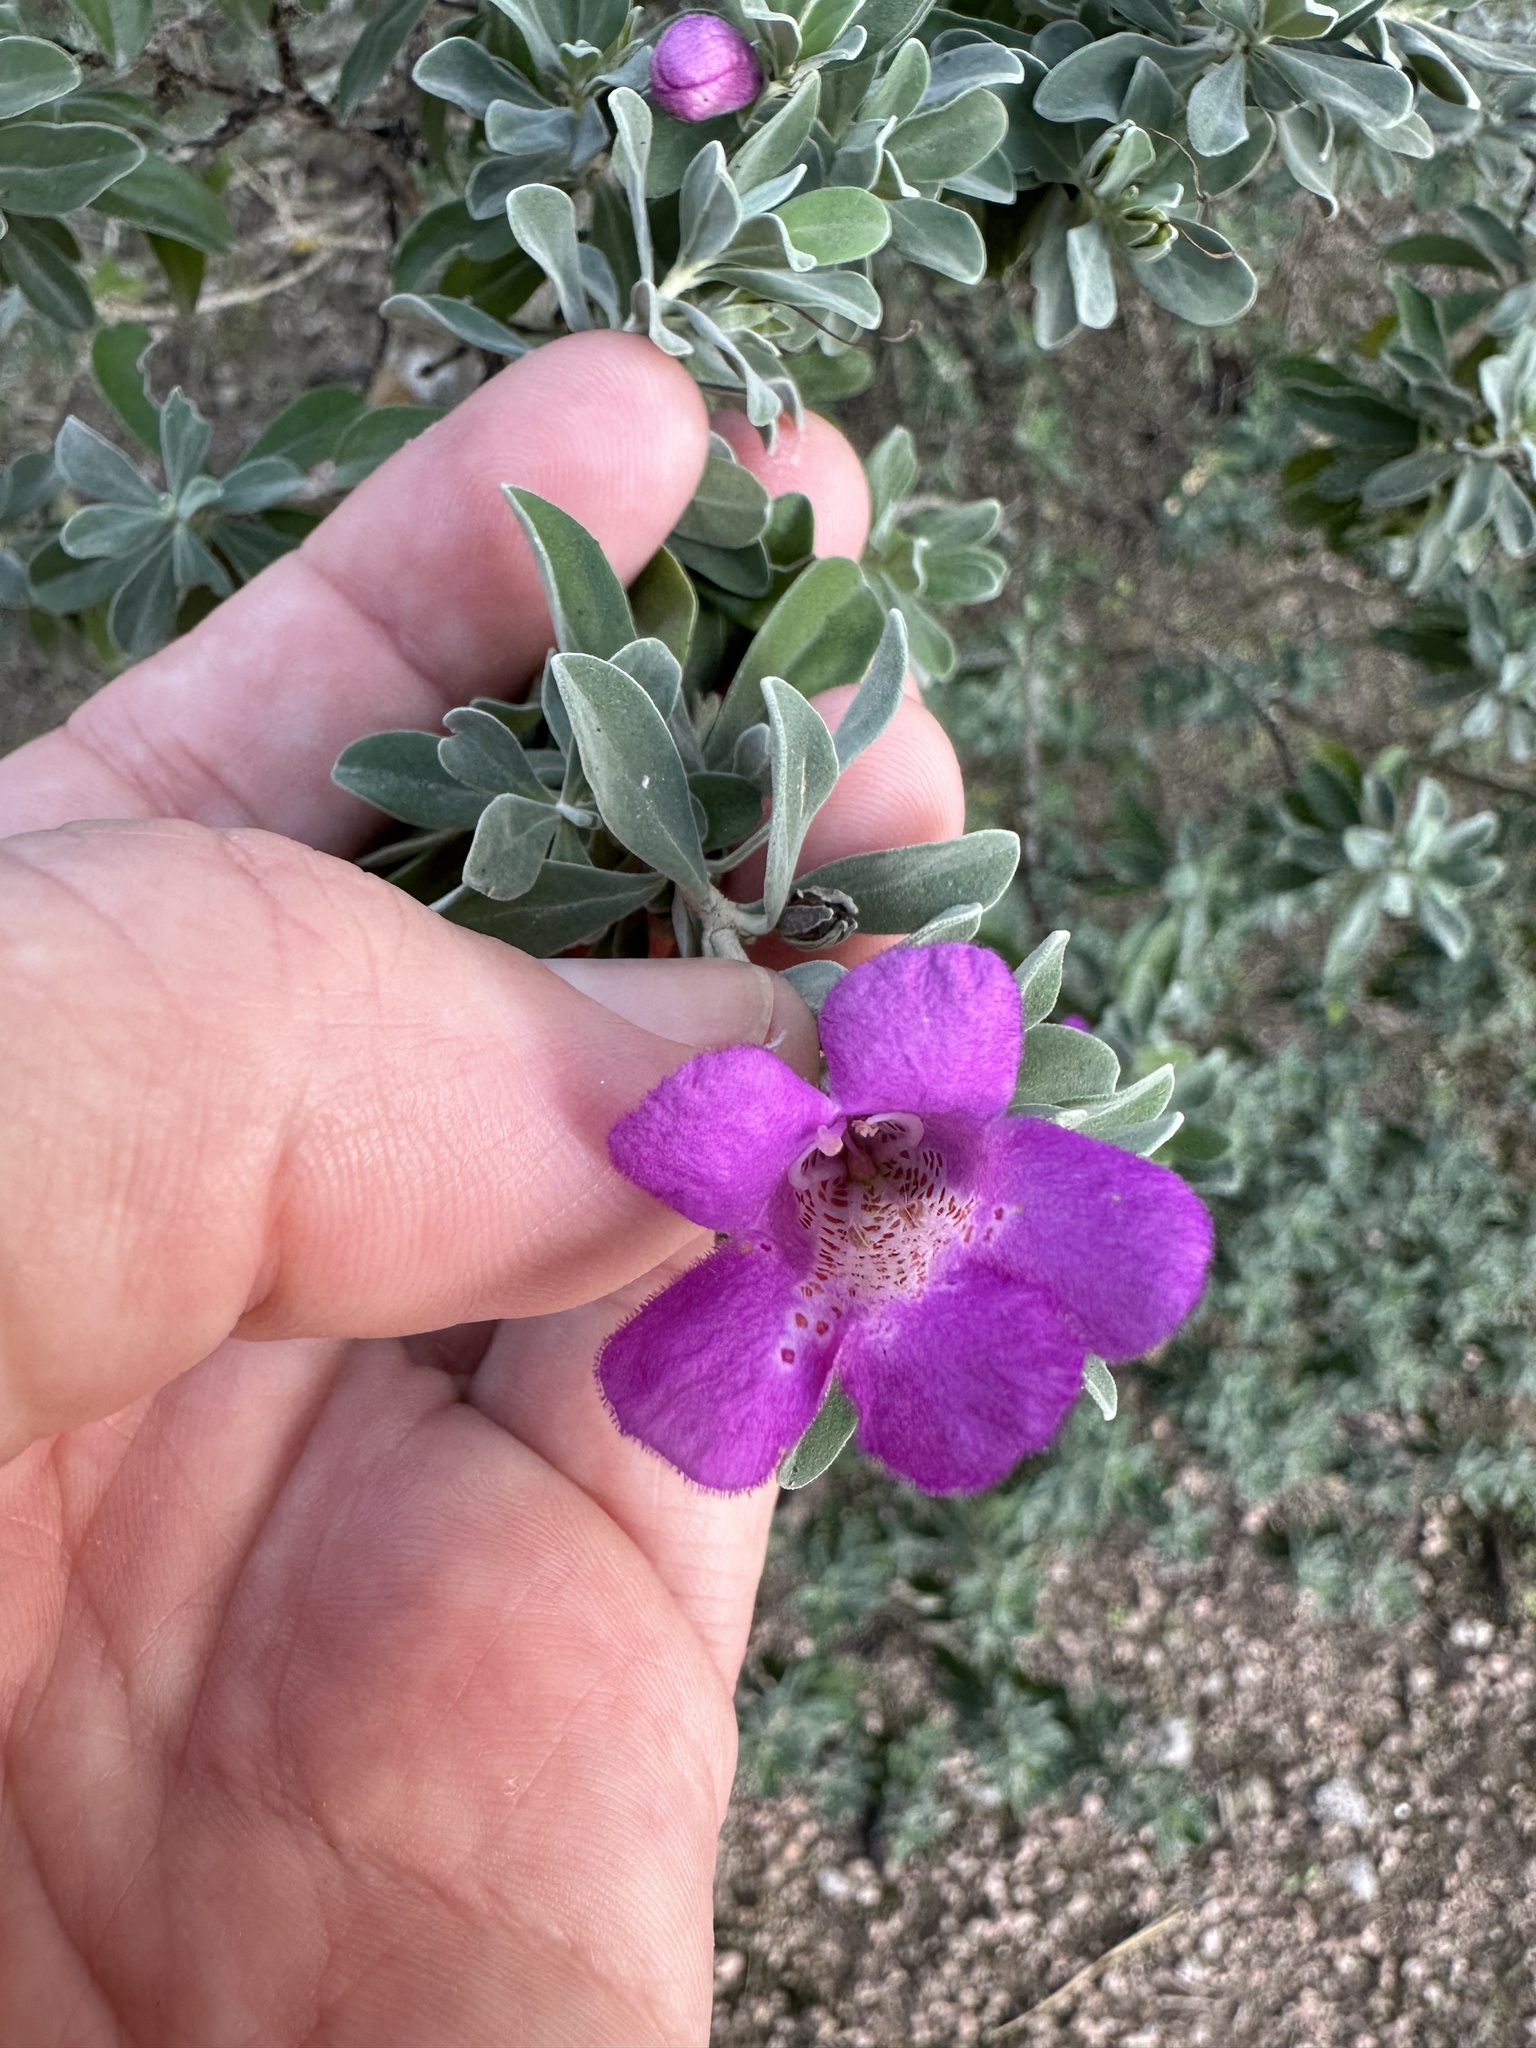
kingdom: Plantae
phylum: Tracheophyta
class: Magnoliopsida
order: Lamiales
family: Scrophulariaceae
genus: Leucophyllum
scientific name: Leucophyllum frutescens
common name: Texas silverleaf
